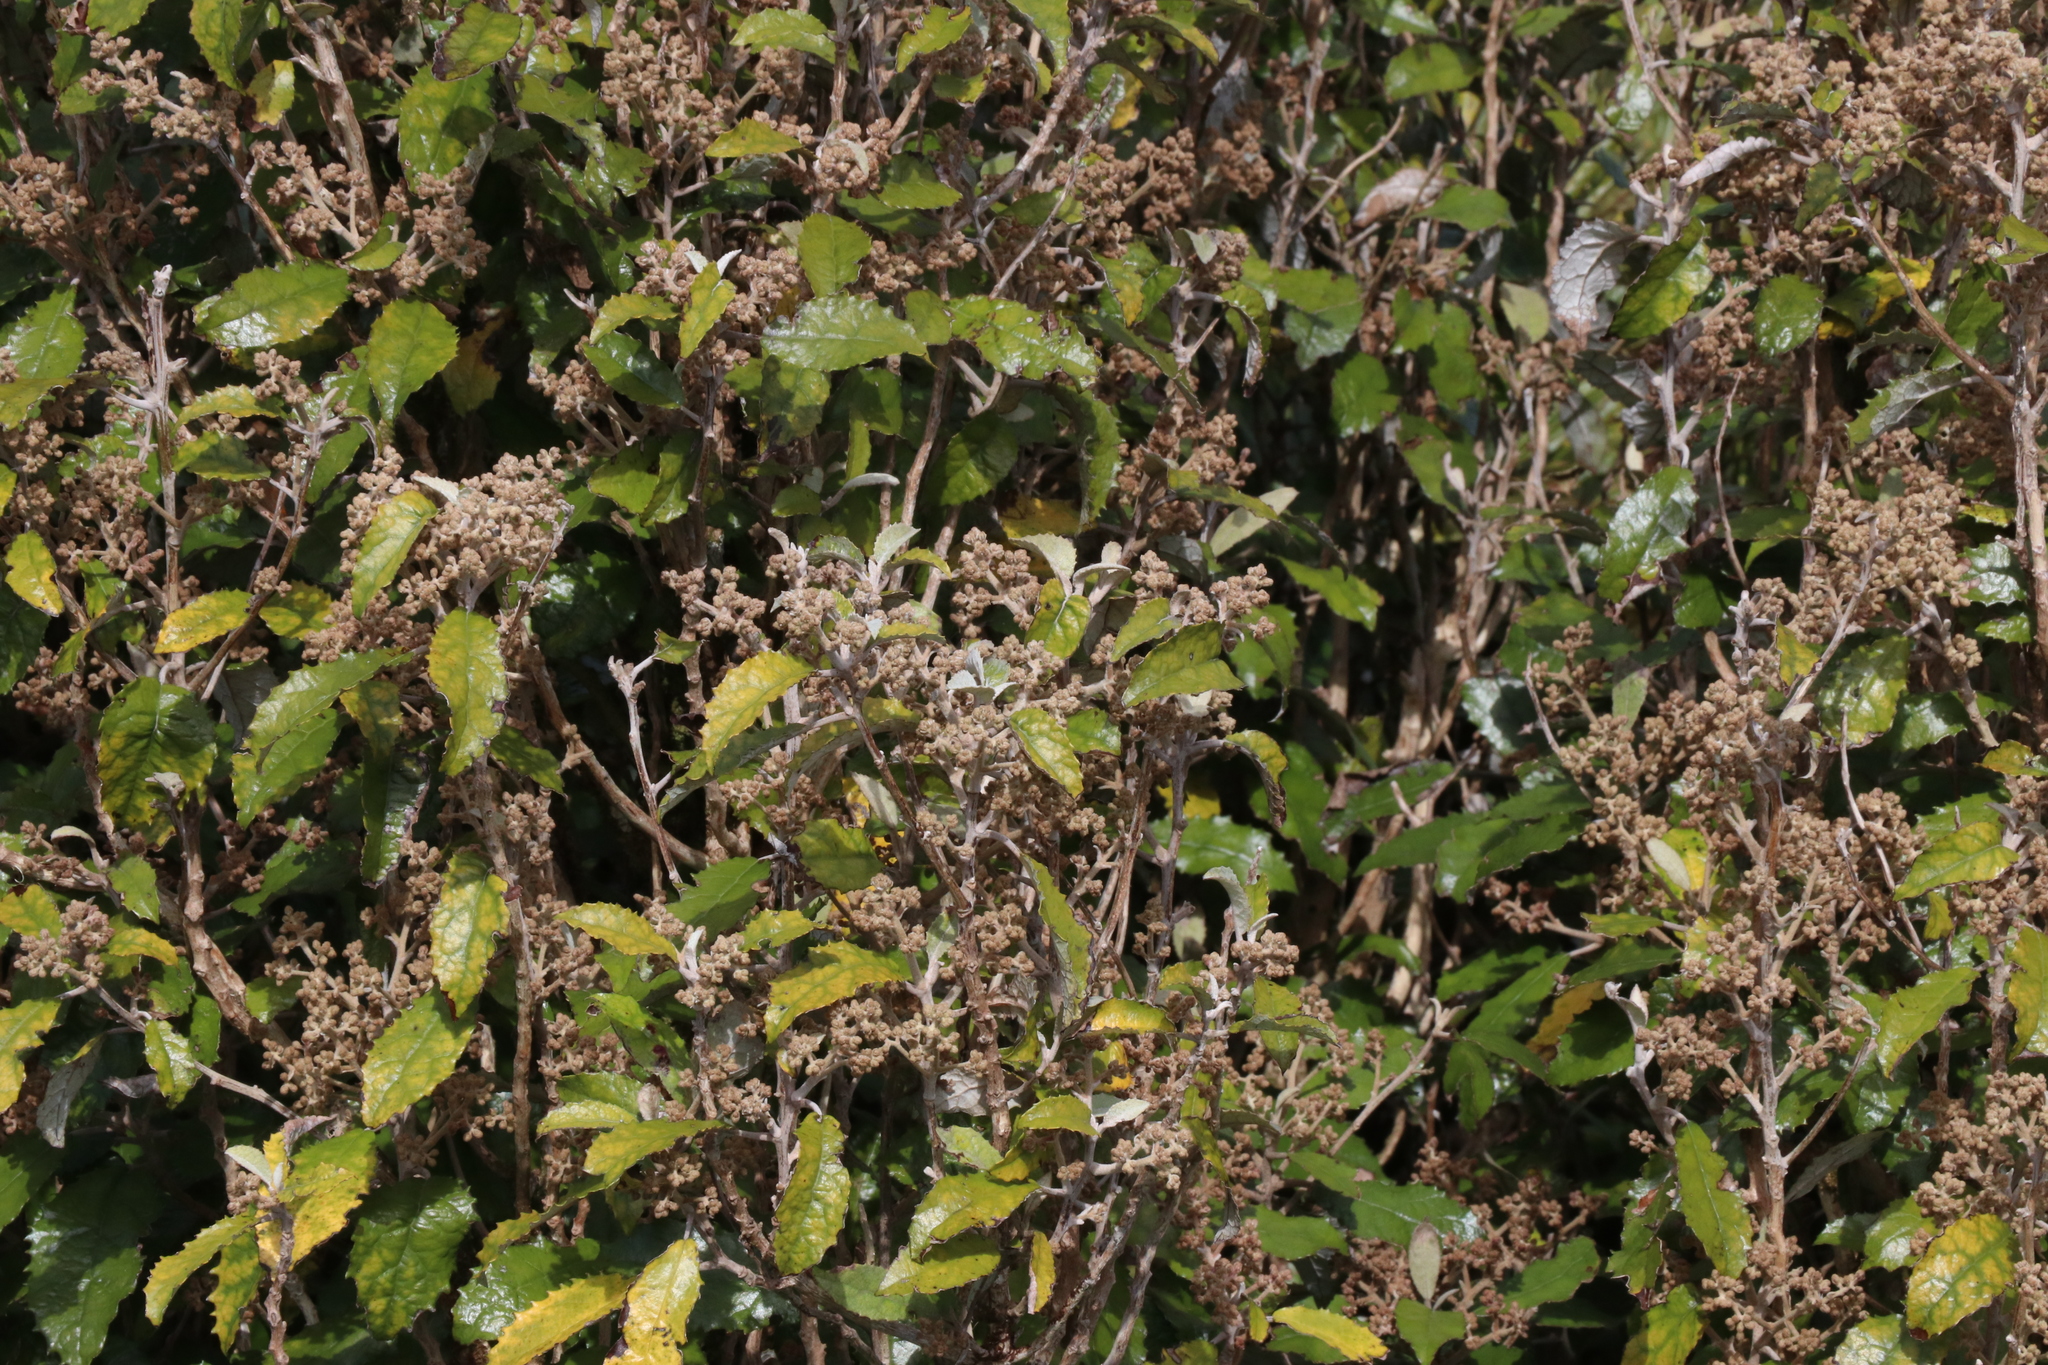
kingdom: Plantae
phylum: Tracheophyta
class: Magnoliopsida
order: Asterales
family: Asteraceae
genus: Olearia
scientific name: Olearia rani
